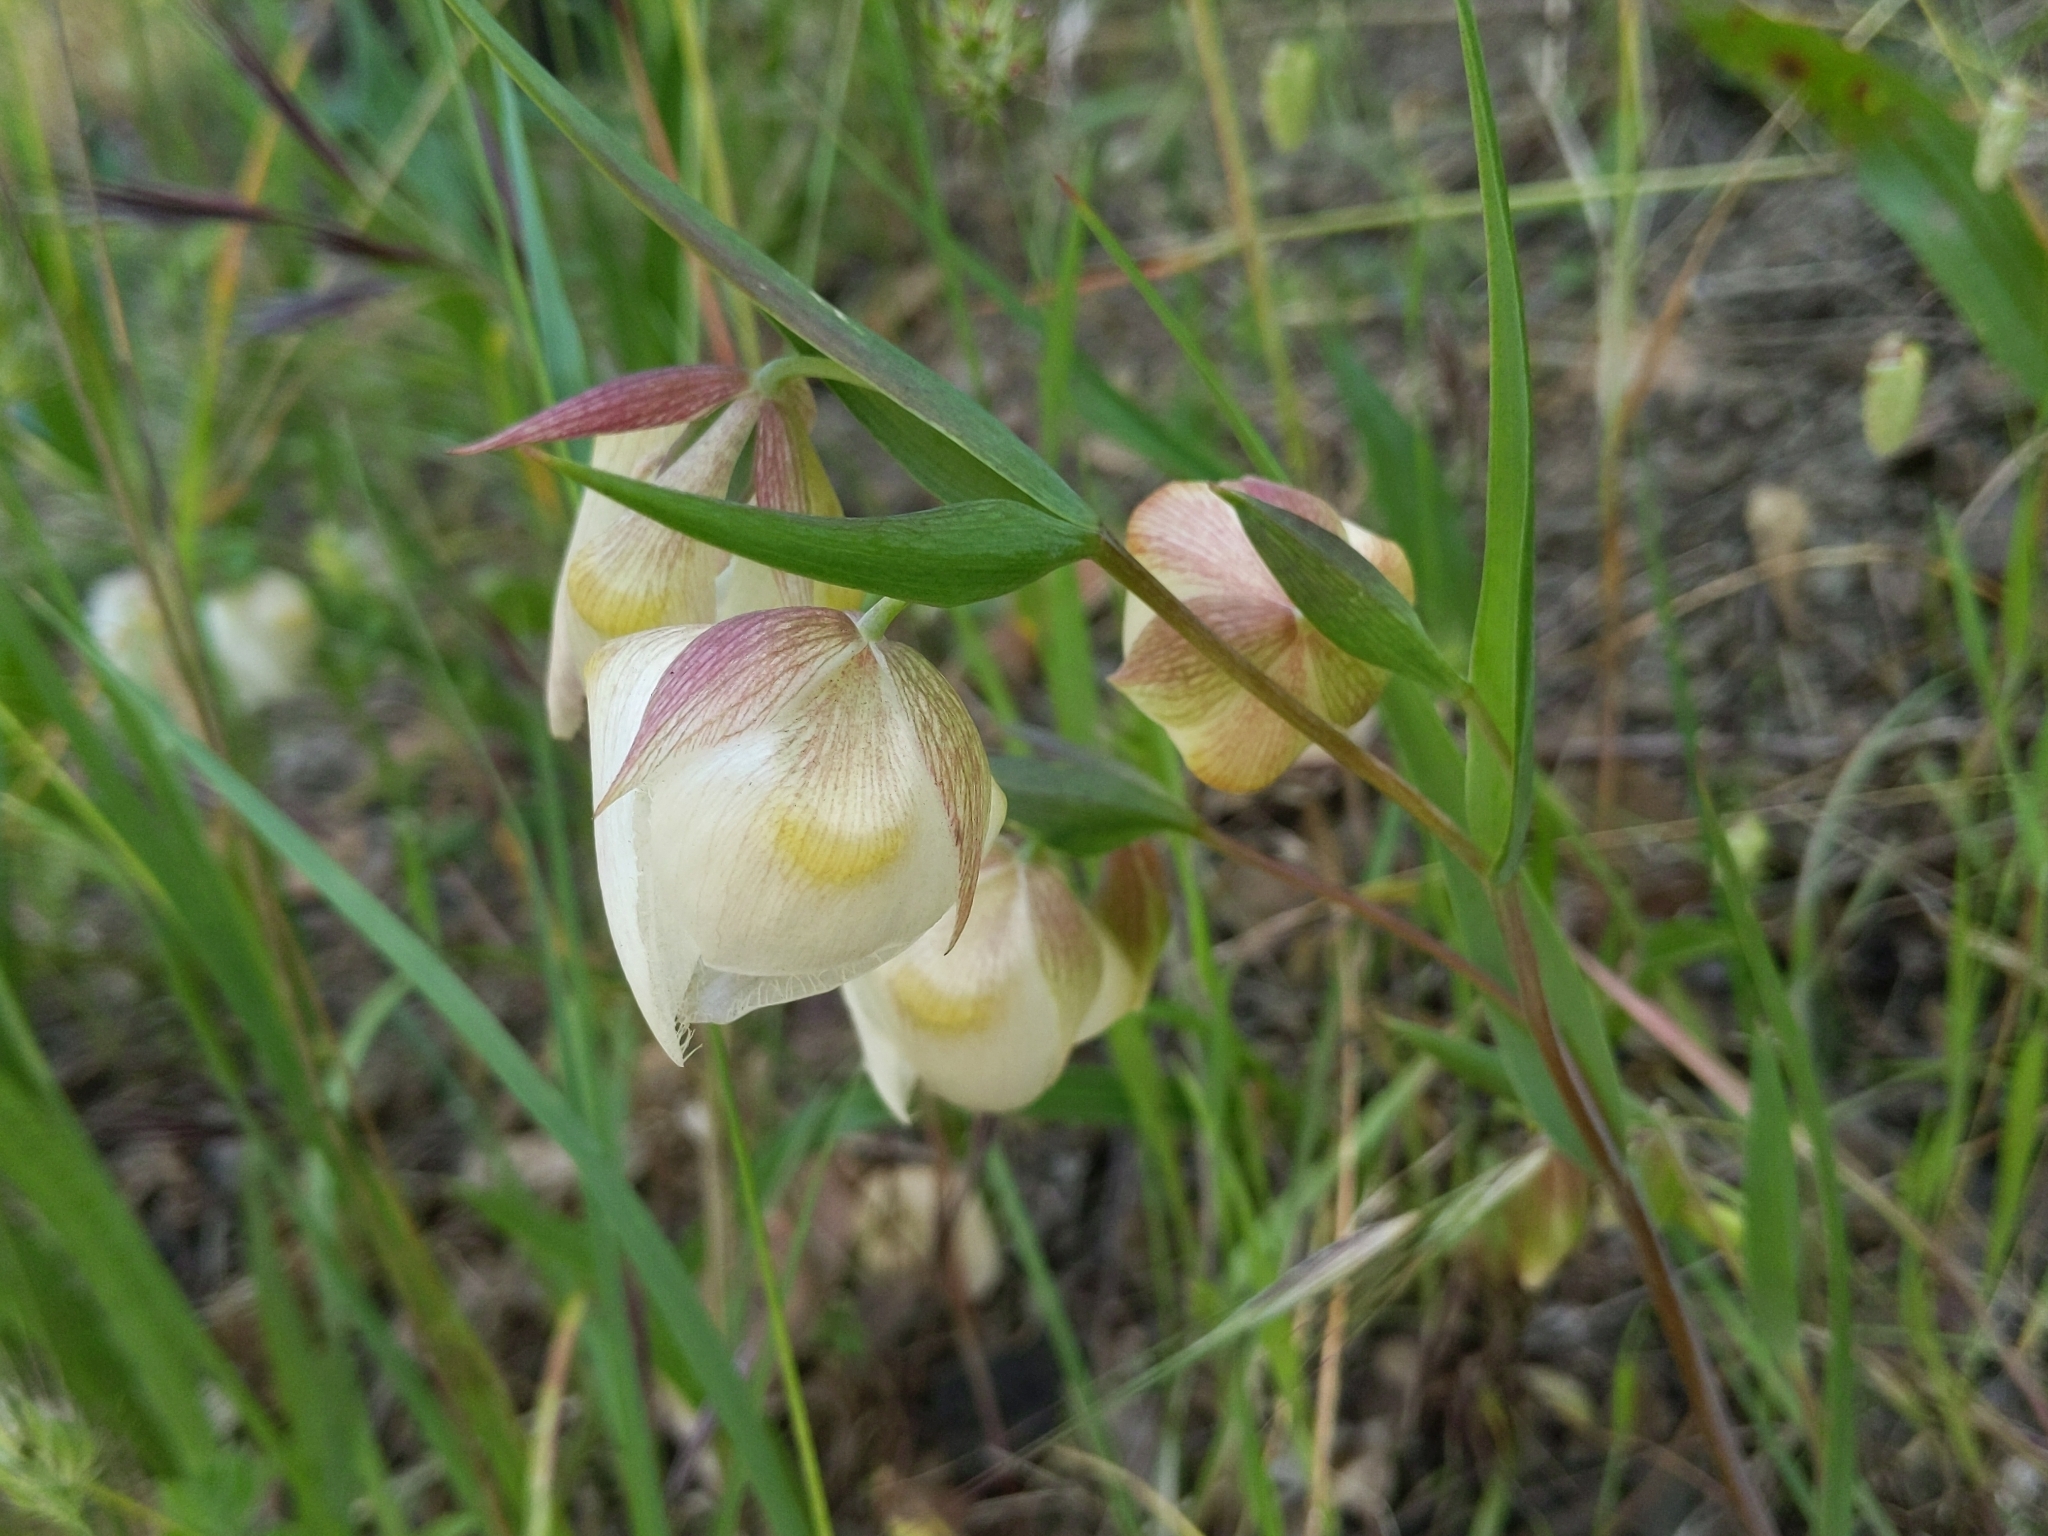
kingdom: Plantae
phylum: Tracheophyta
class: Liliopsida
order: Liliales
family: Liliaceae
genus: Calochortus
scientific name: Calochortus albus
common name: Fairy-lantern
